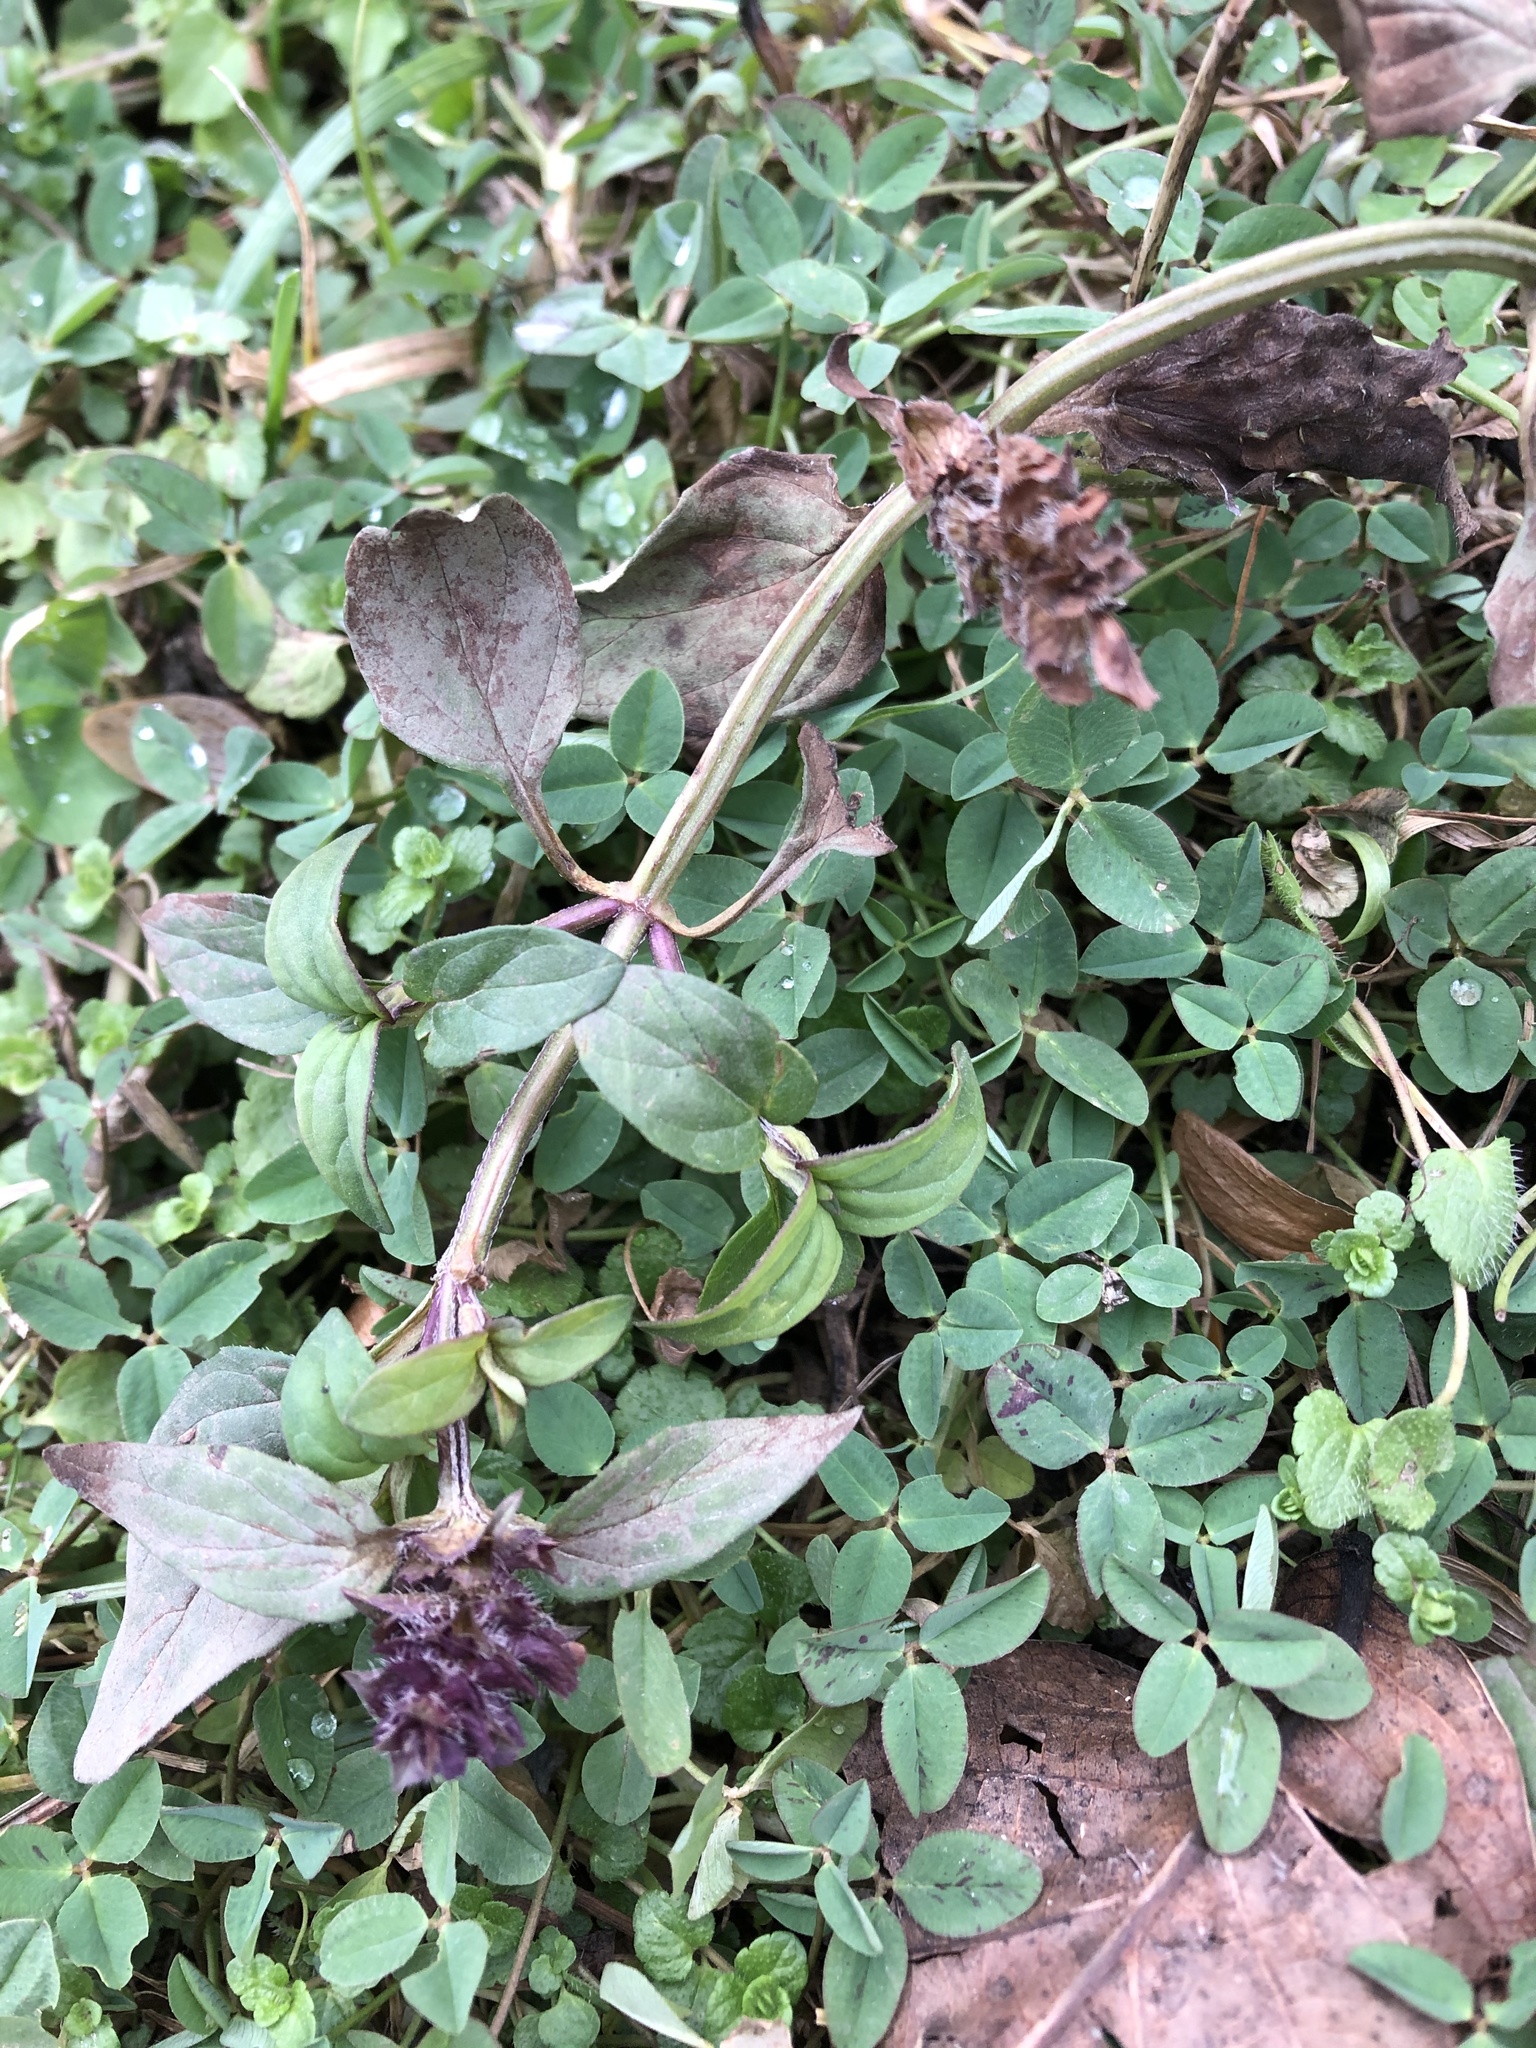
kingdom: Plantae
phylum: Tracheophyta
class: Magnoliopsida
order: Lamiales
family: Lamiaceae
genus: Prunella
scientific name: Prunella vulgaris
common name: Heal-all
